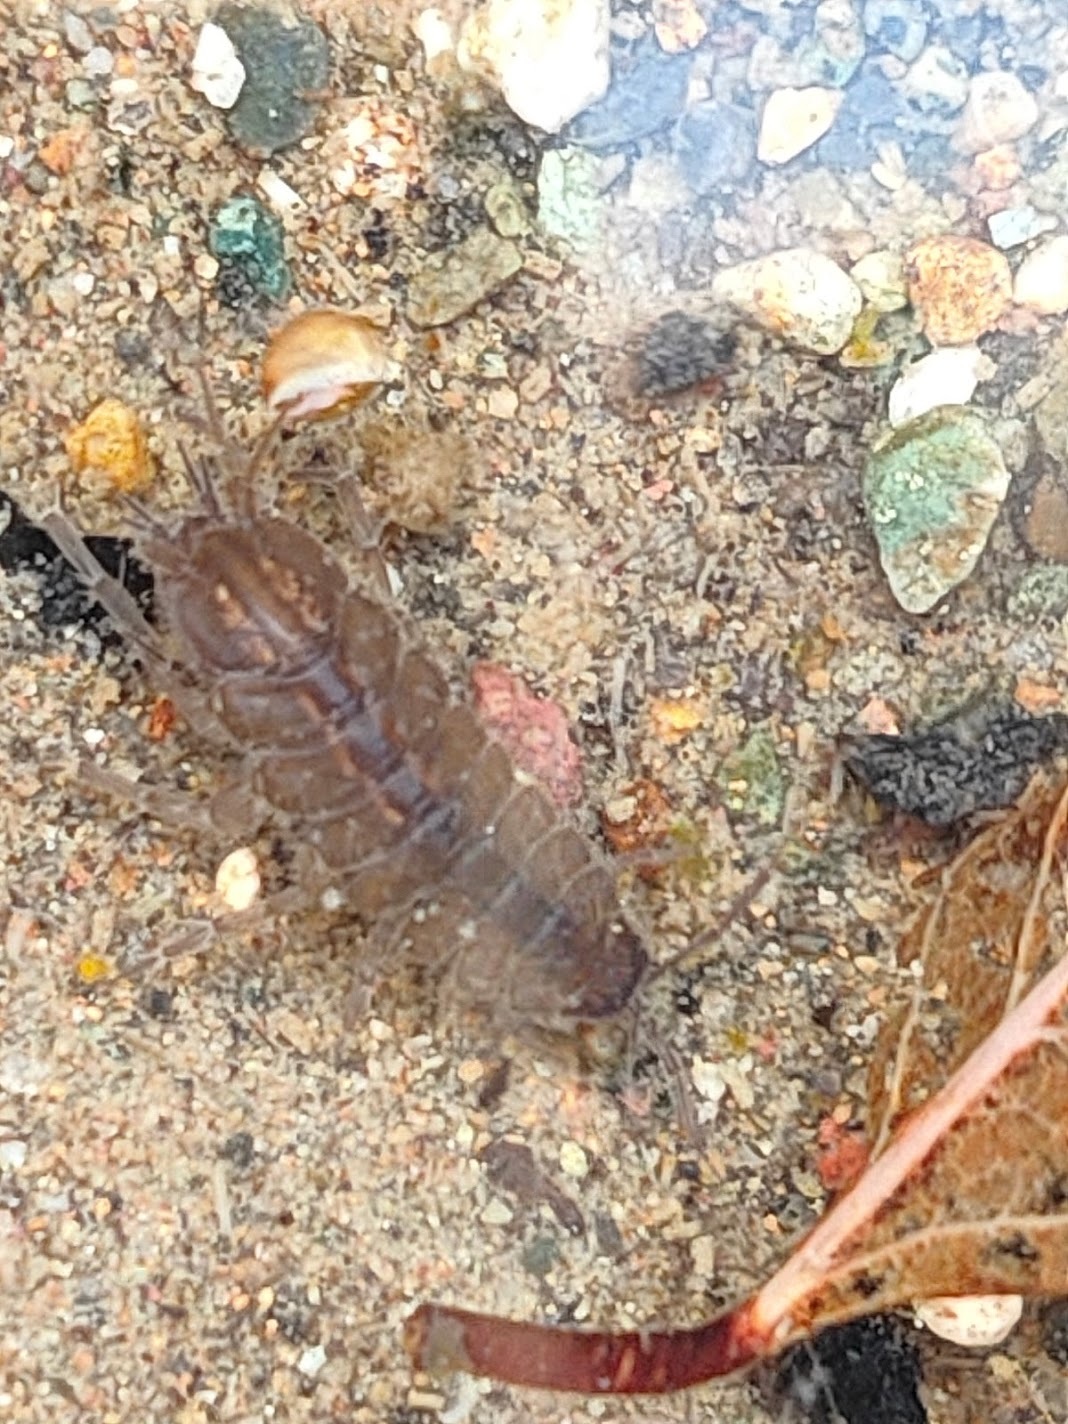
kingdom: Animalia
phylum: Arthropoda
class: Malacostraca
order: Isopoda
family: Asellidae
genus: Asellus
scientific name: Asellus hilgendorfii
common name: Isopod
